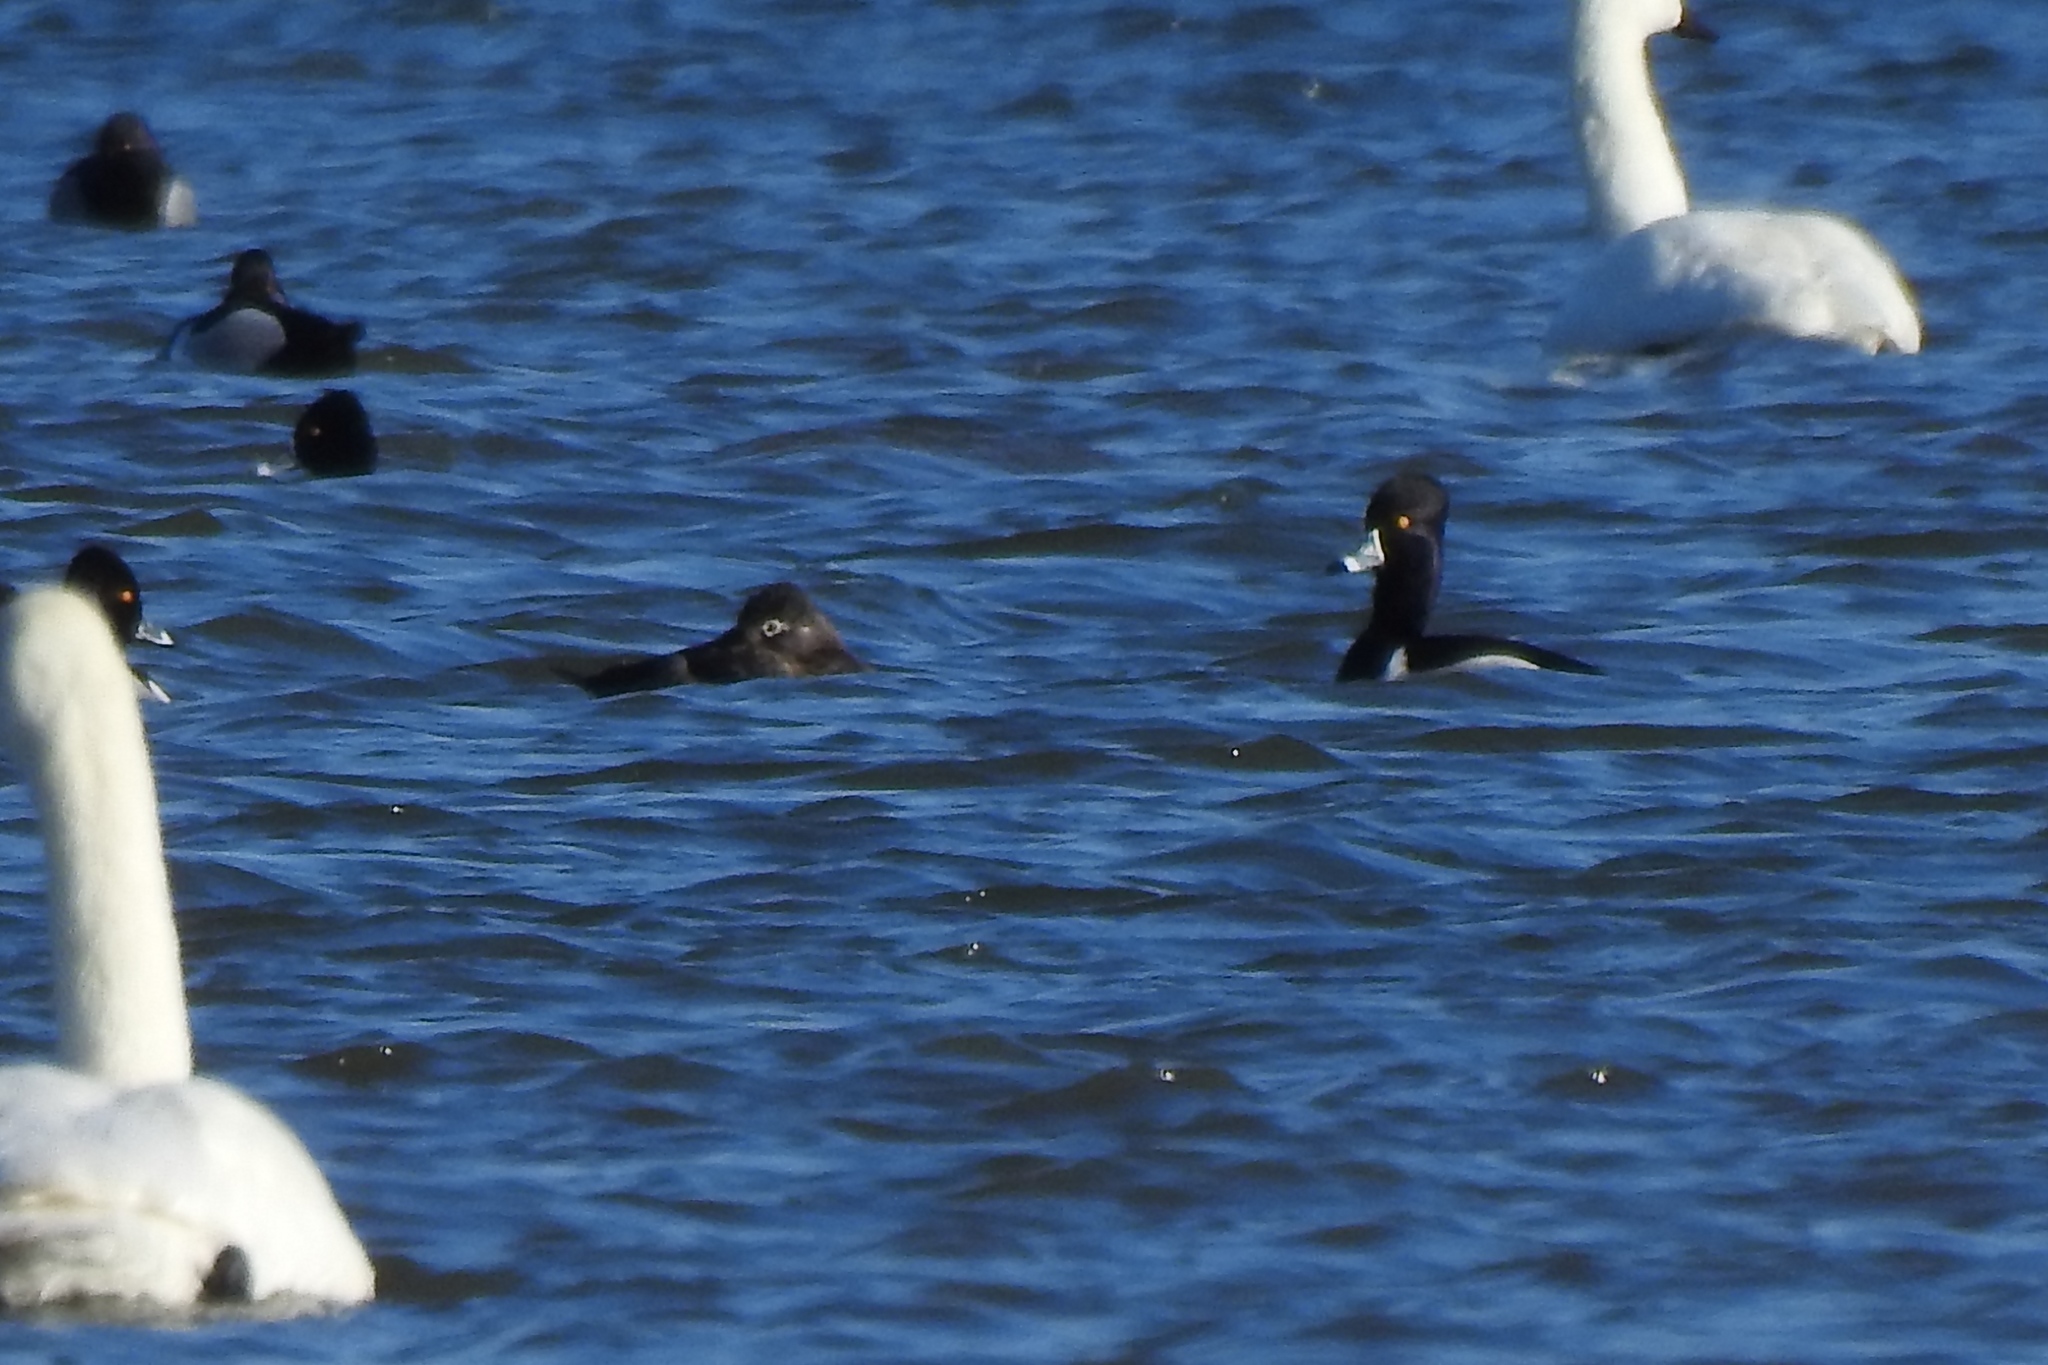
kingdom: Animalia
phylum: Chordata
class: Aves
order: Anseriformes
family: Anatidae
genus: Aythya
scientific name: Aythya collaris
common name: Ring-necked duck
